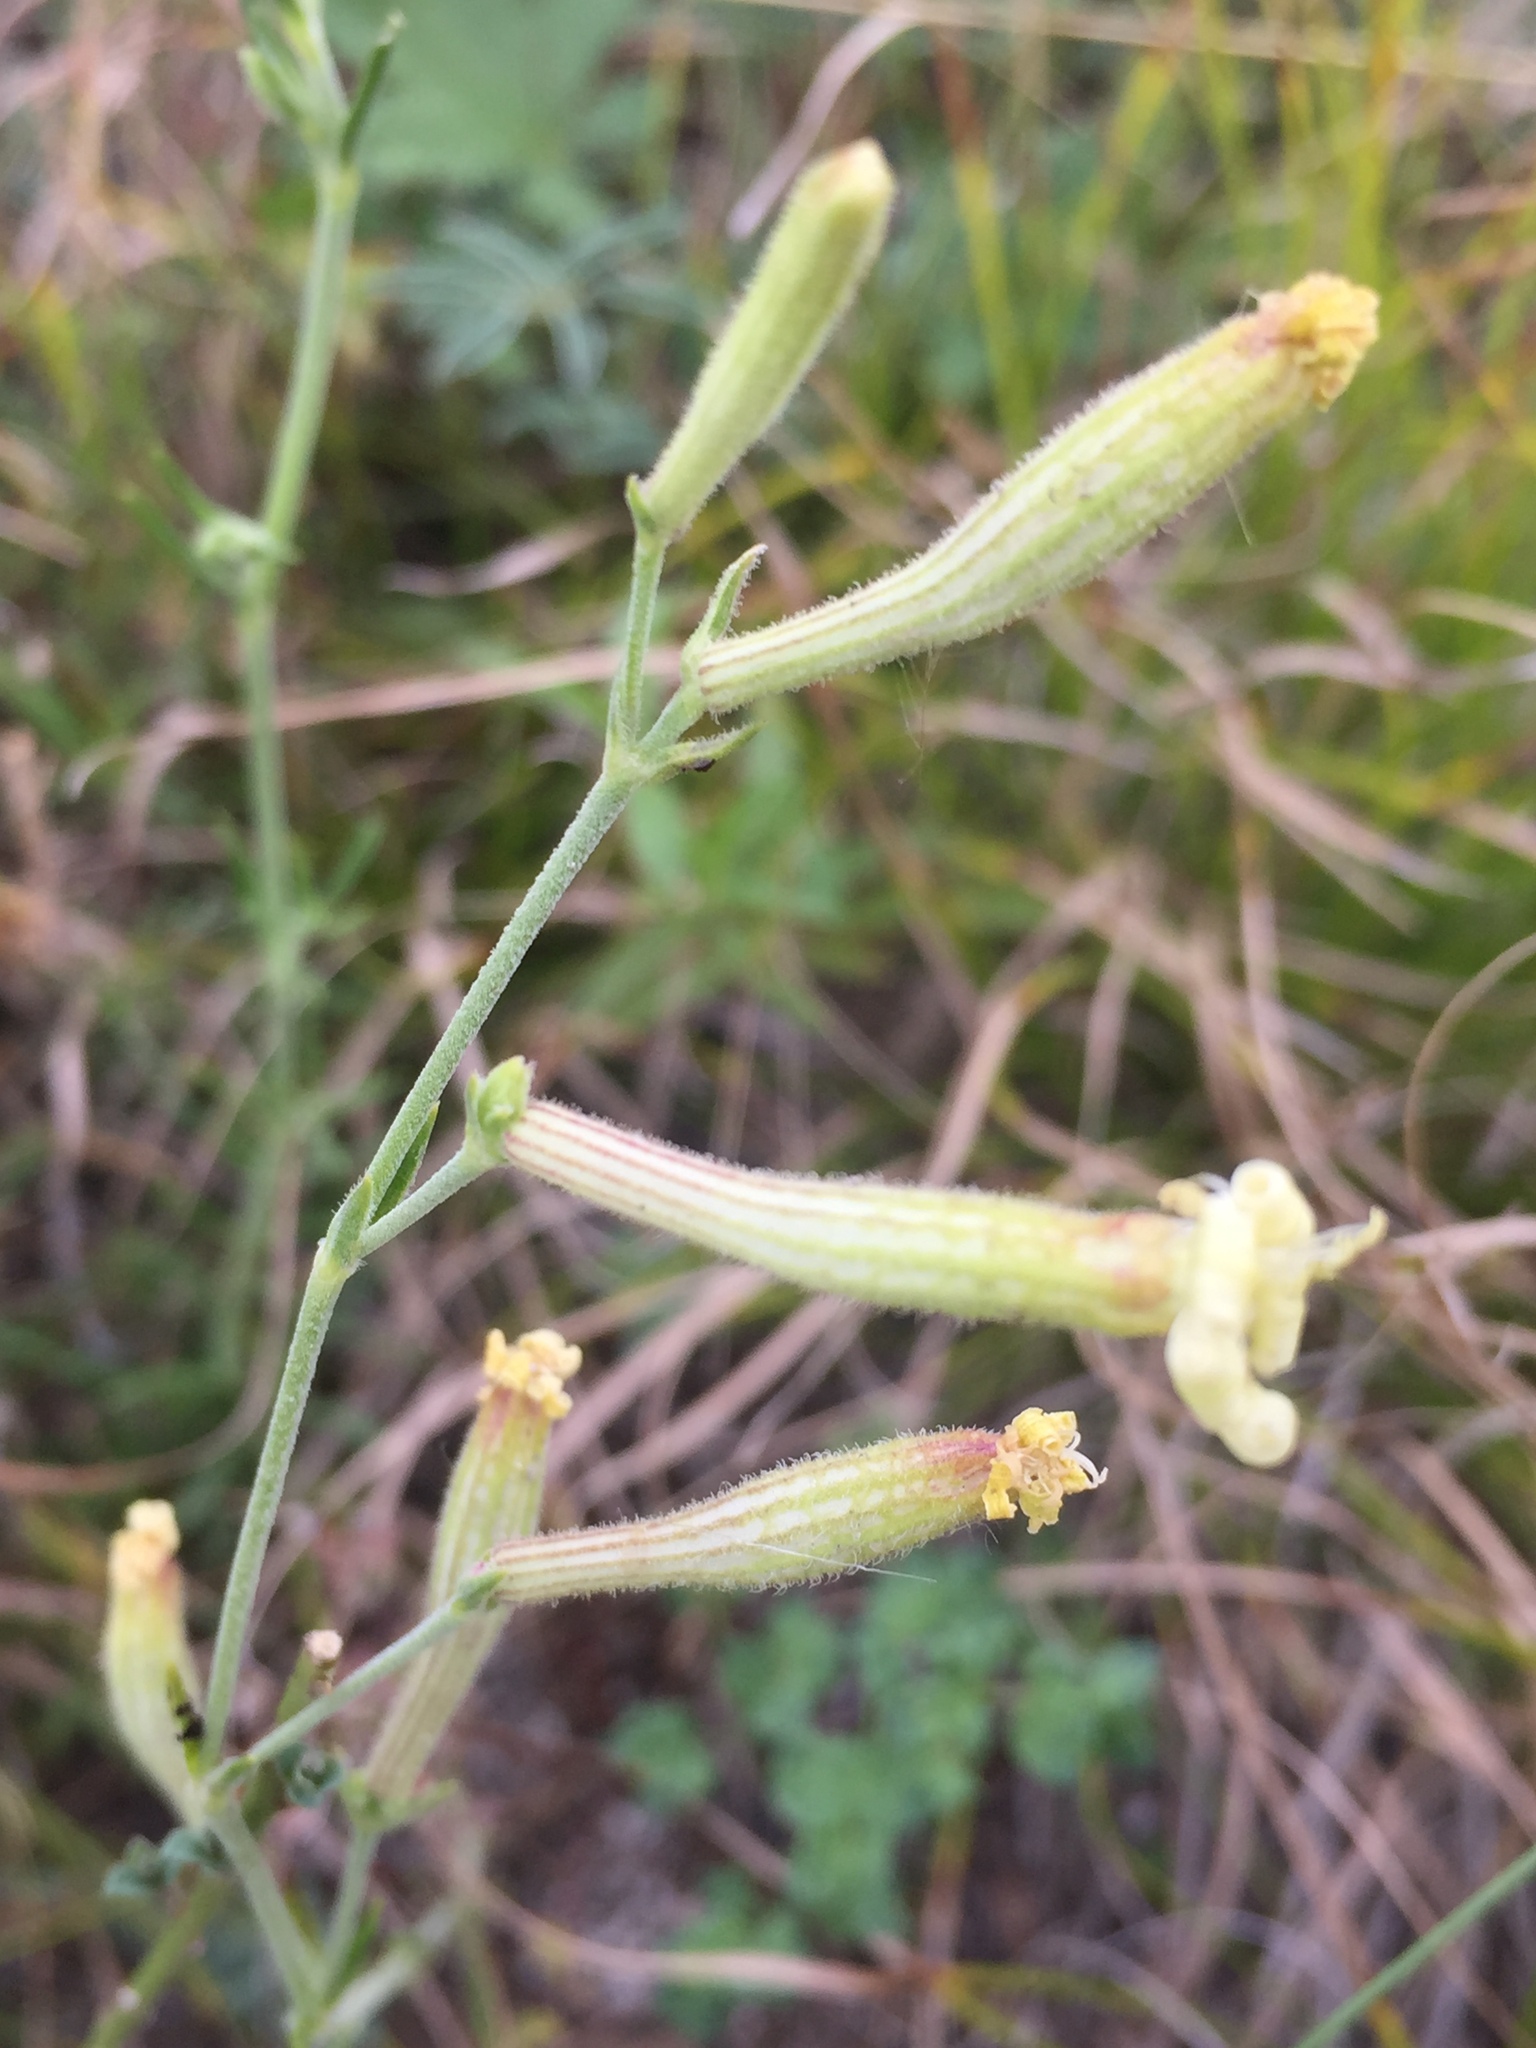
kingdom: Plantae
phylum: Tracheophyta
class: Magnoliopsida
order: Caryophyllales
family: Caryophyllaceae
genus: Silene
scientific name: Silene supina
